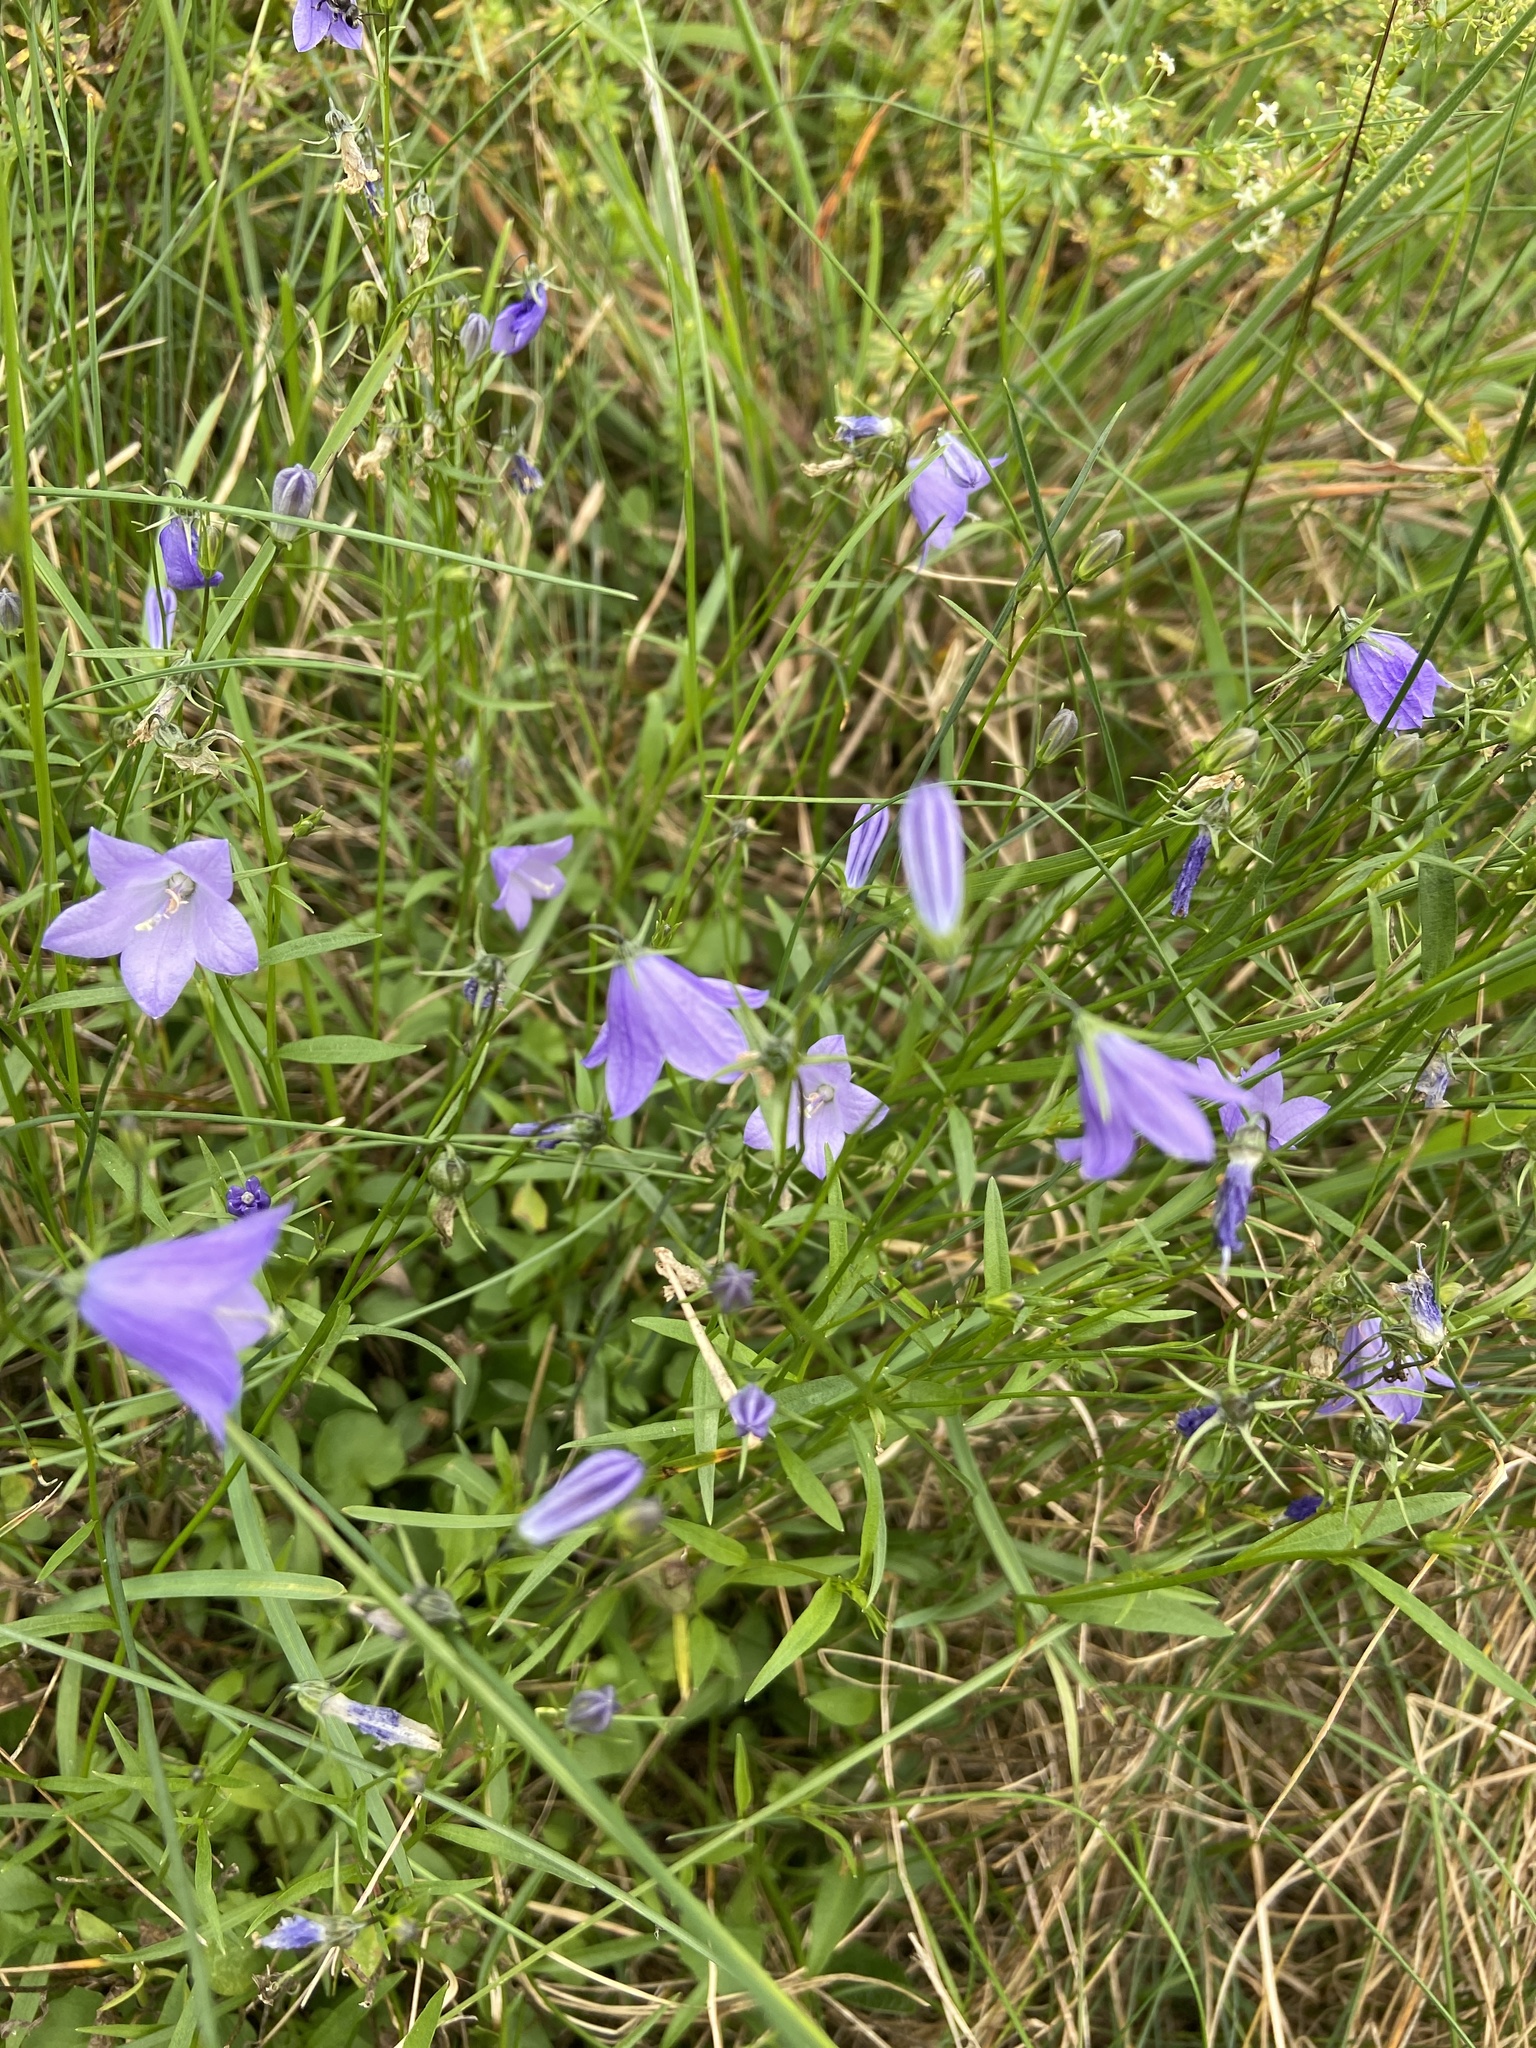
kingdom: Plantae
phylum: Tracheophyta
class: Magnoliopsida
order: Asterales
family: Campanulaceae
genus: Campanula
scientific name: Campanula rotundifolia
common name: Harebell
